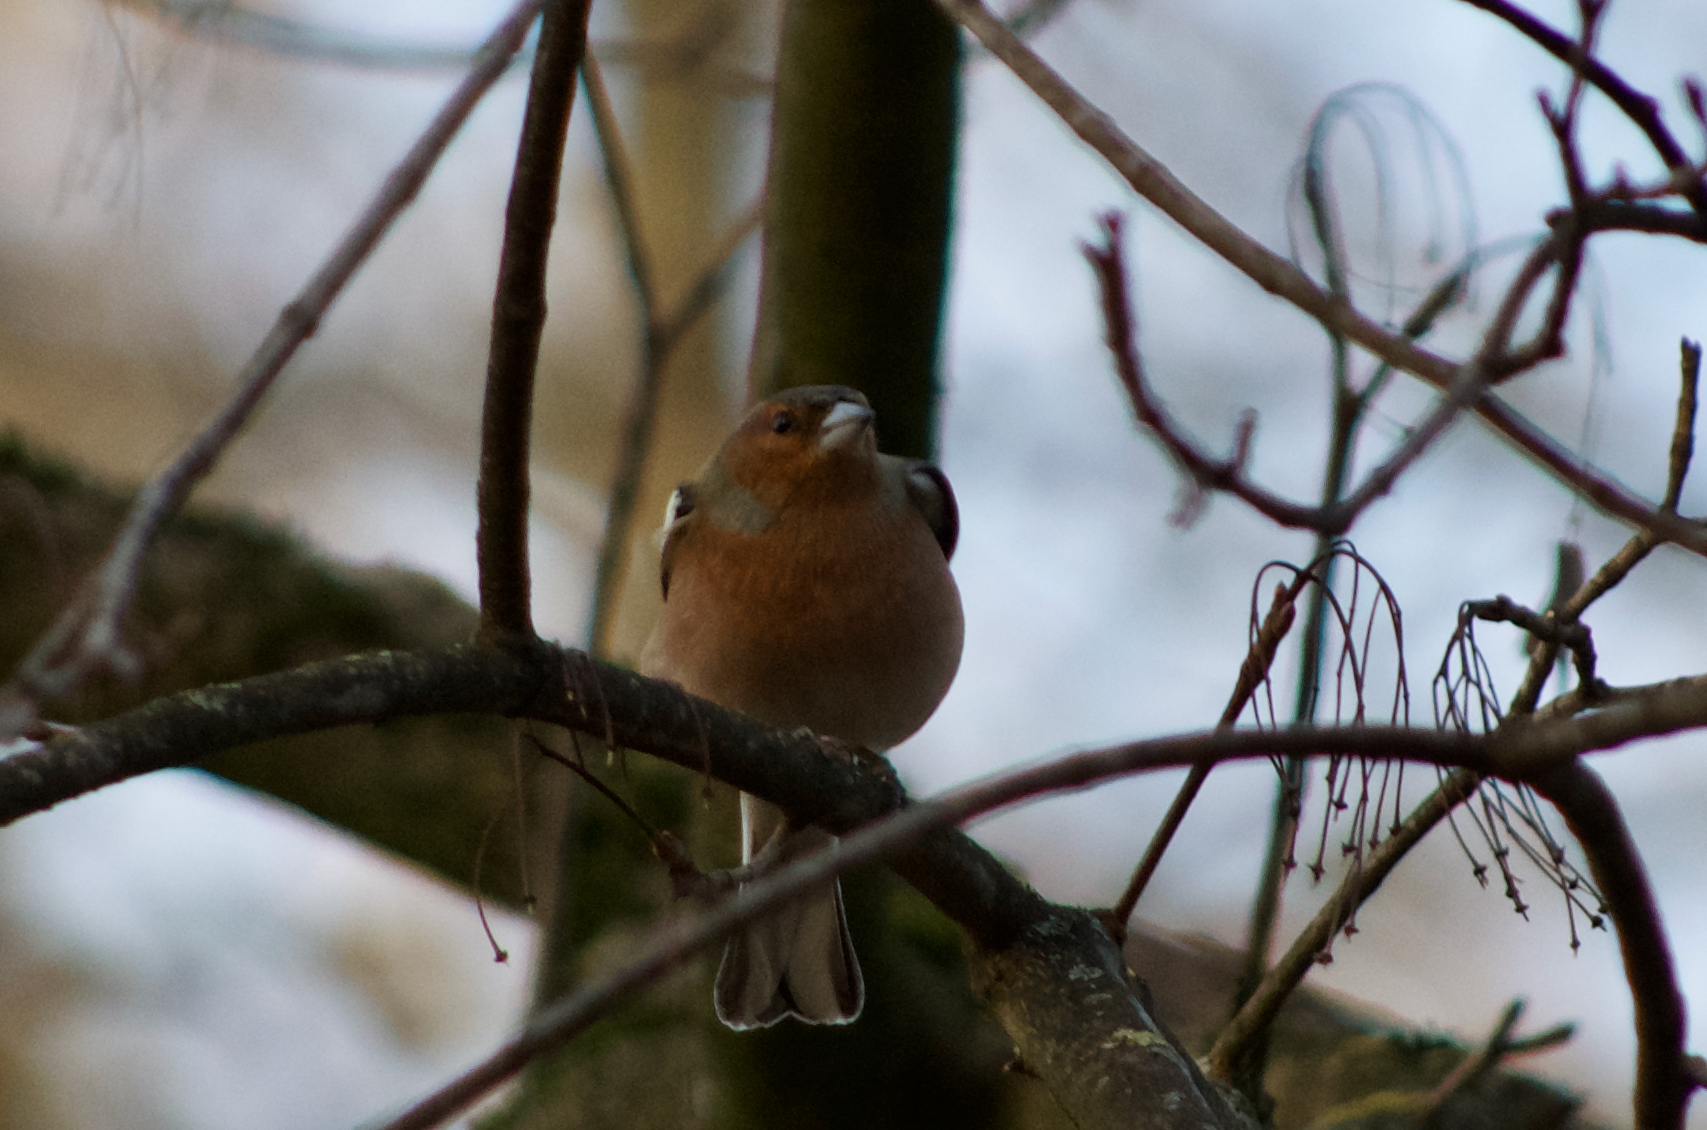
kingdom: Animalia
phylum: Chordata
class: Aves
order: Passeriformes
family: Fringillidae
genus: Fringilla
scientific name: Fringilla coelebs
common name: Common chaffinch
